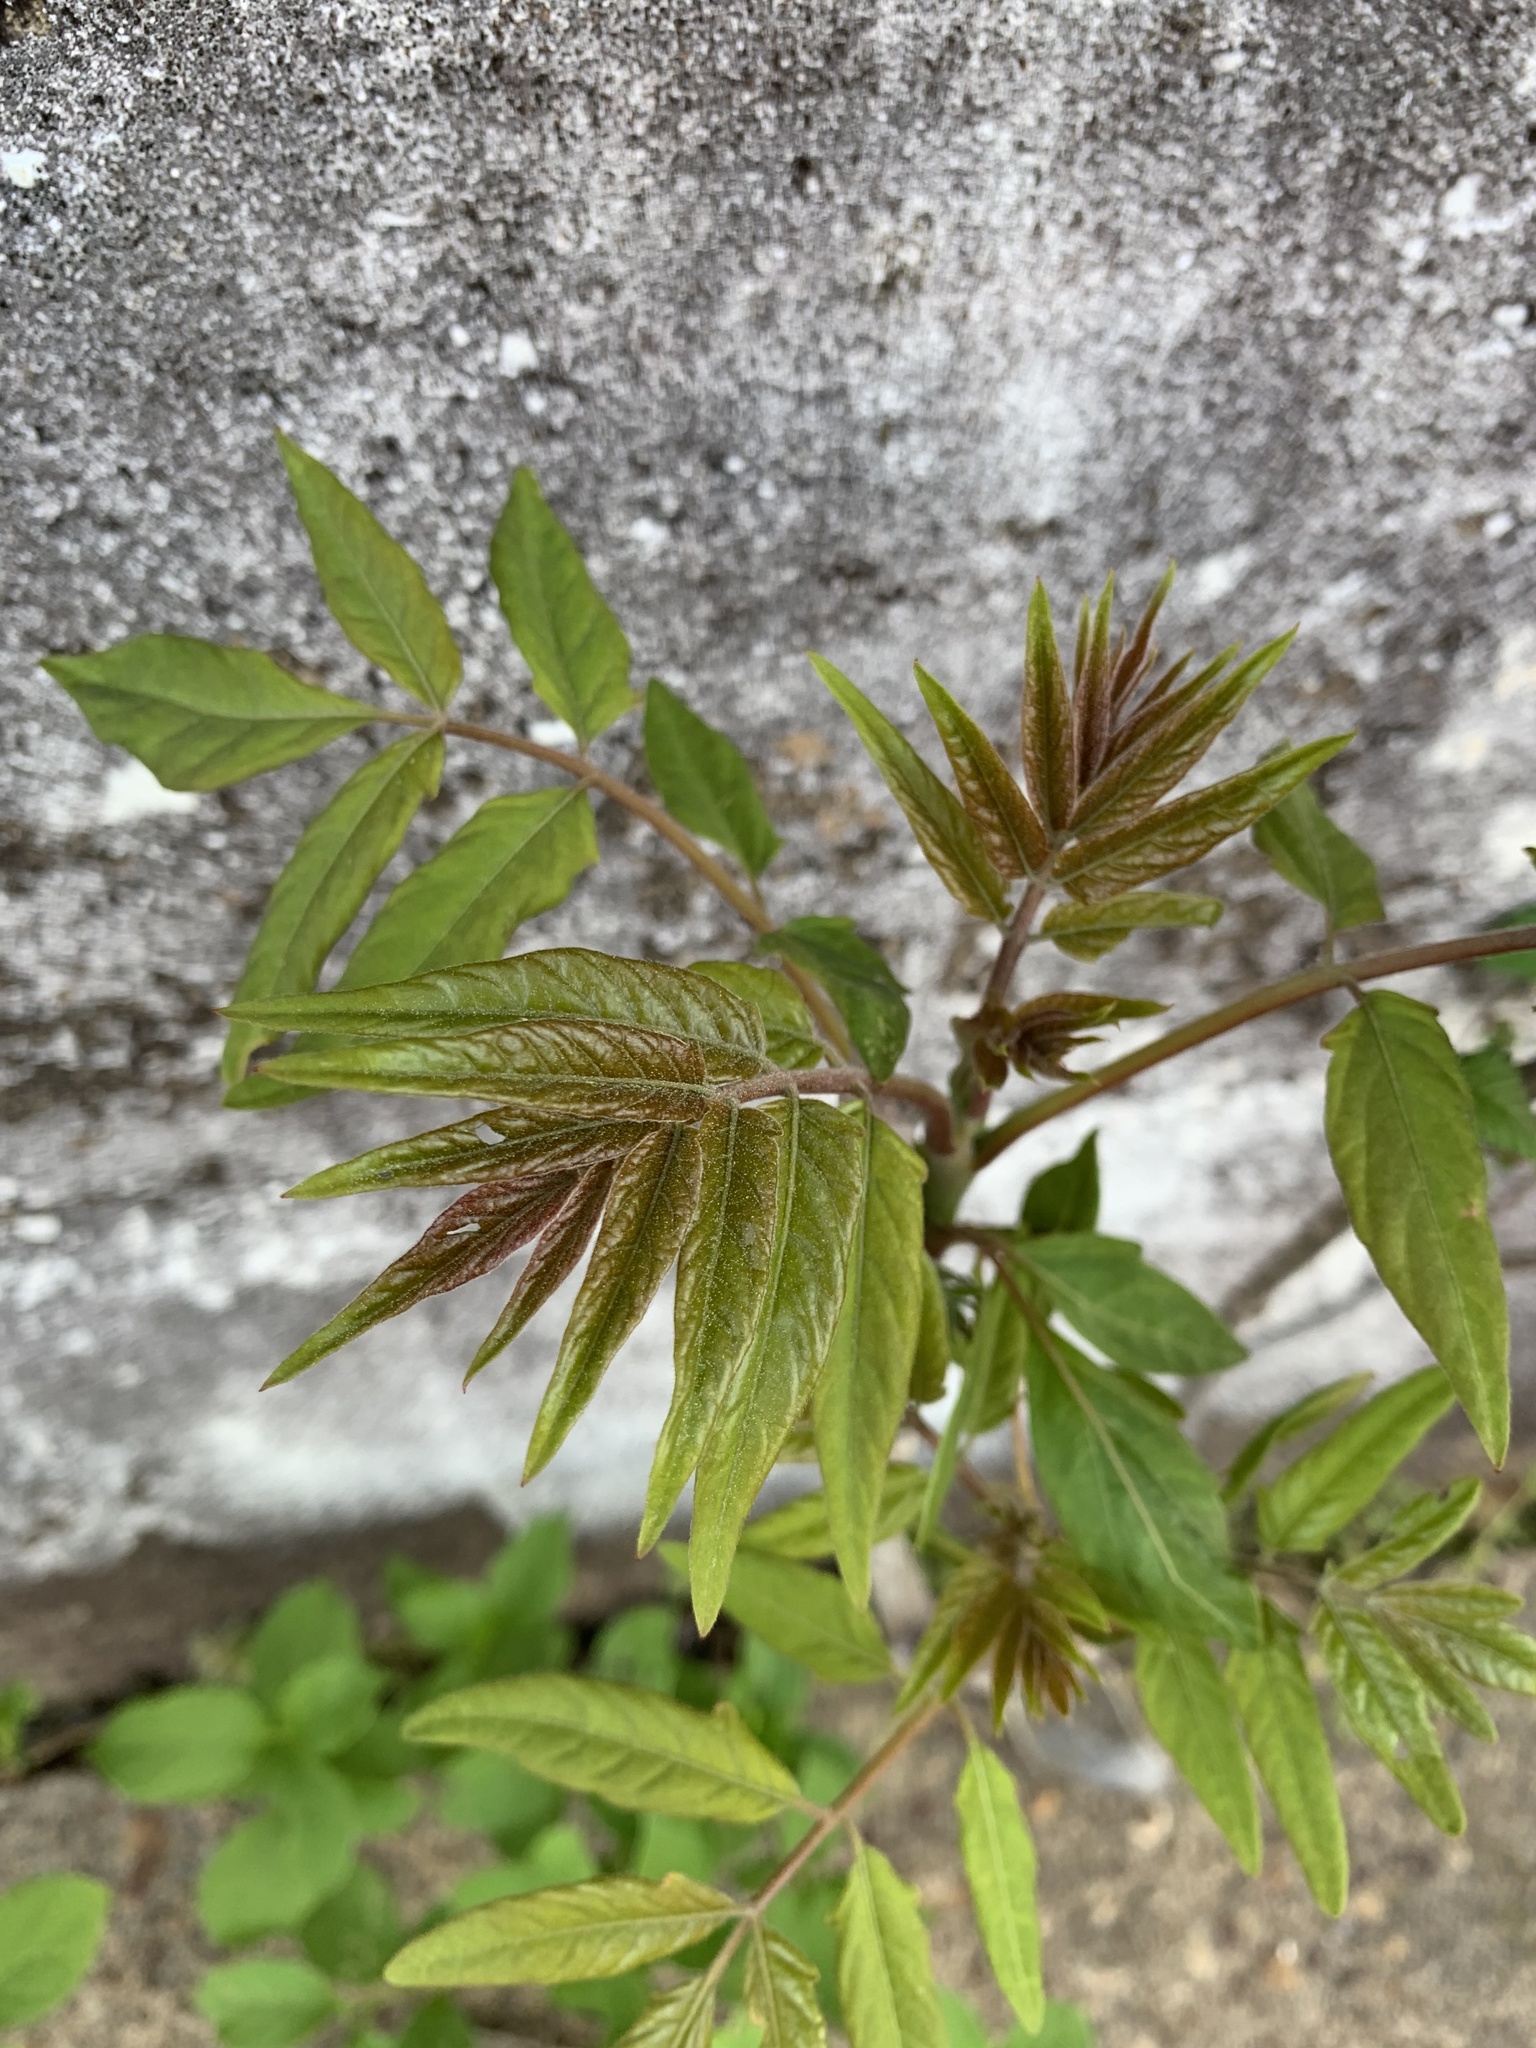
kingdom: Plantae
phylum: Tracheophyta
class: Magnoliopsida
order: Sapindales
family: Simaroubaceae
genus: Ailanthus
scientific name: Ailanthus altissima
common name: Tree-of-heaven
